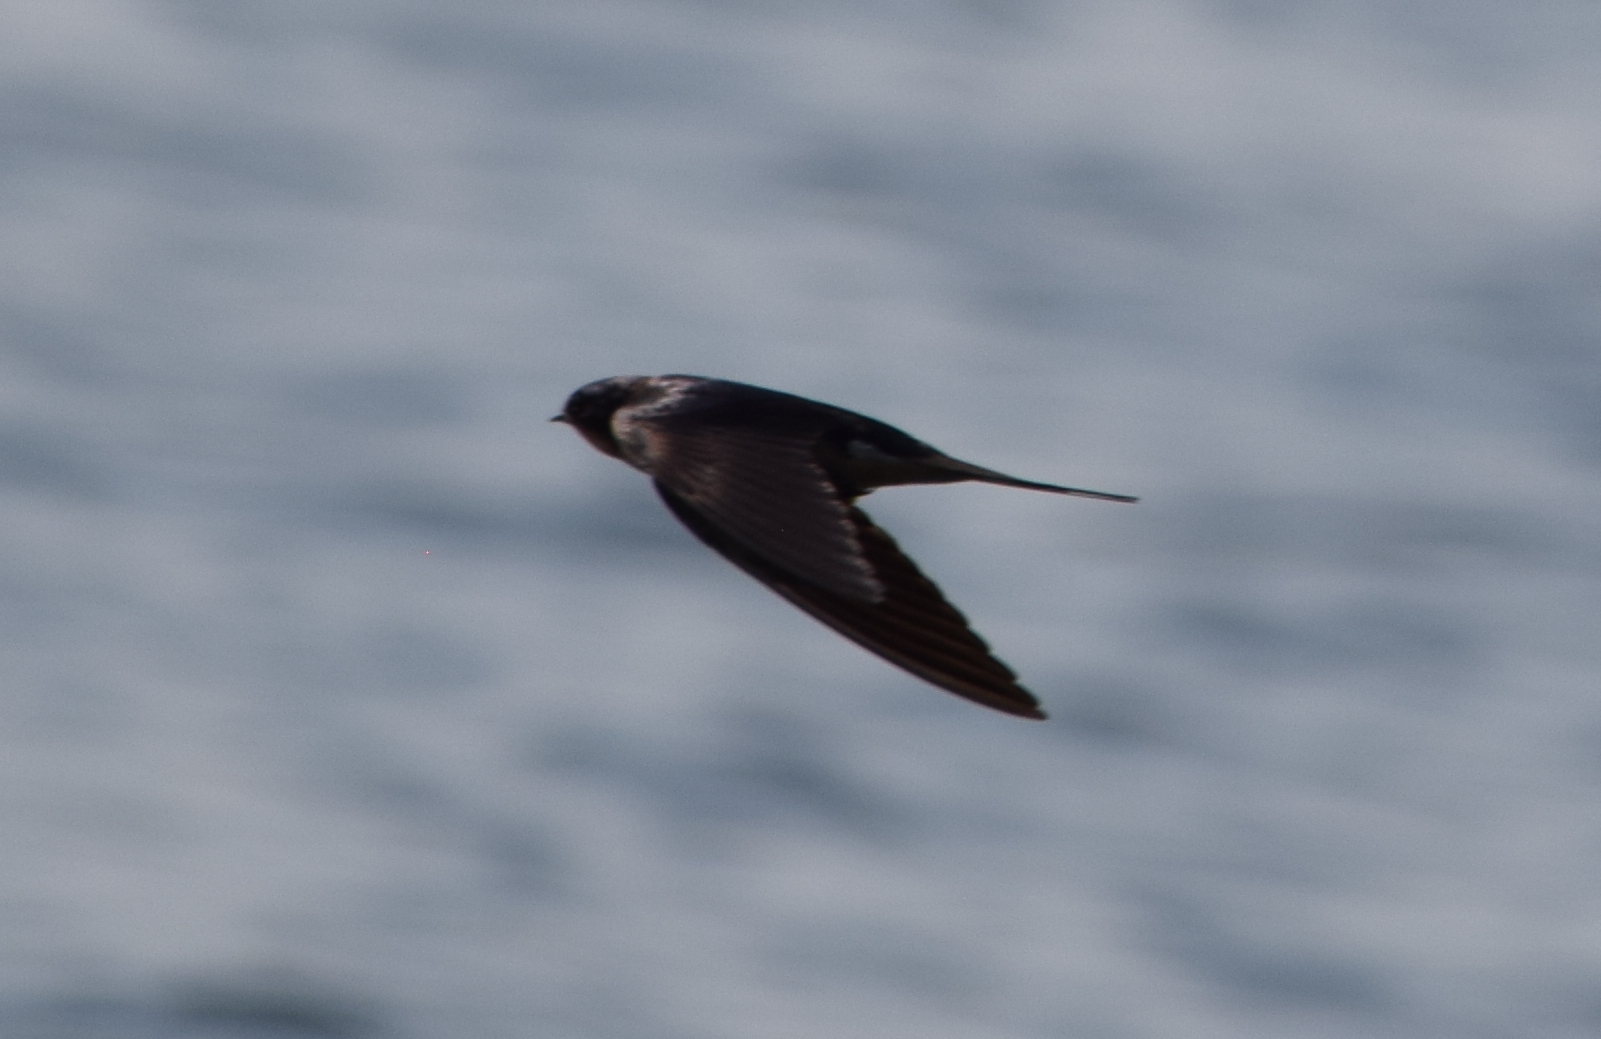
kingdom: Animalia
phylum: Chordata
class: Aves
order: Passeriformes
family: Hirundinidae
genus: Hirundo
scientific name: Hirundo rustica
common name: Barn swallow
